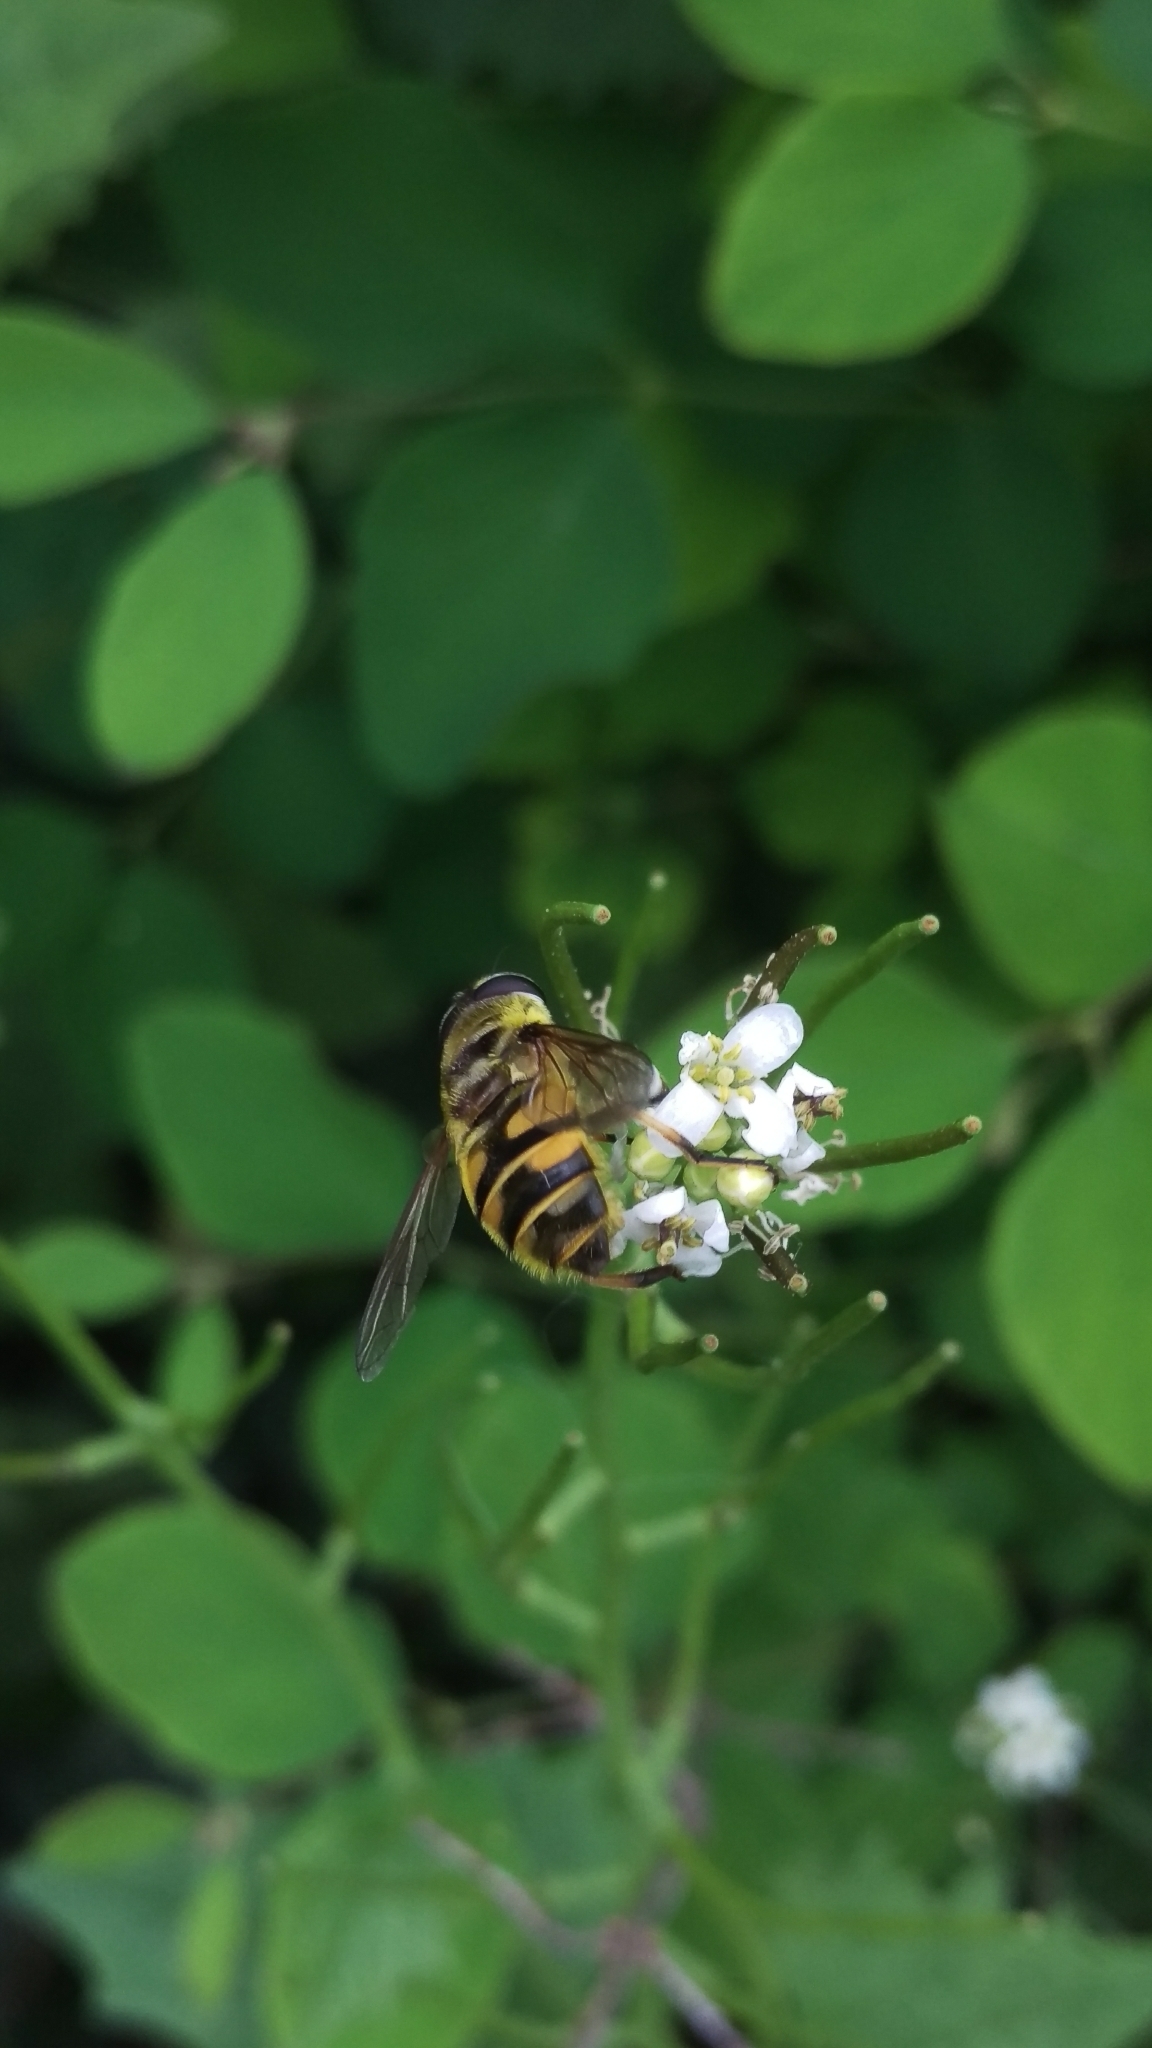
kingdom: Animalia
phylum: Arthropoda
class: Insecta
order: Diptera
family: Syrphidae
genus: Myathropa
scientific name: Myathropa florea
